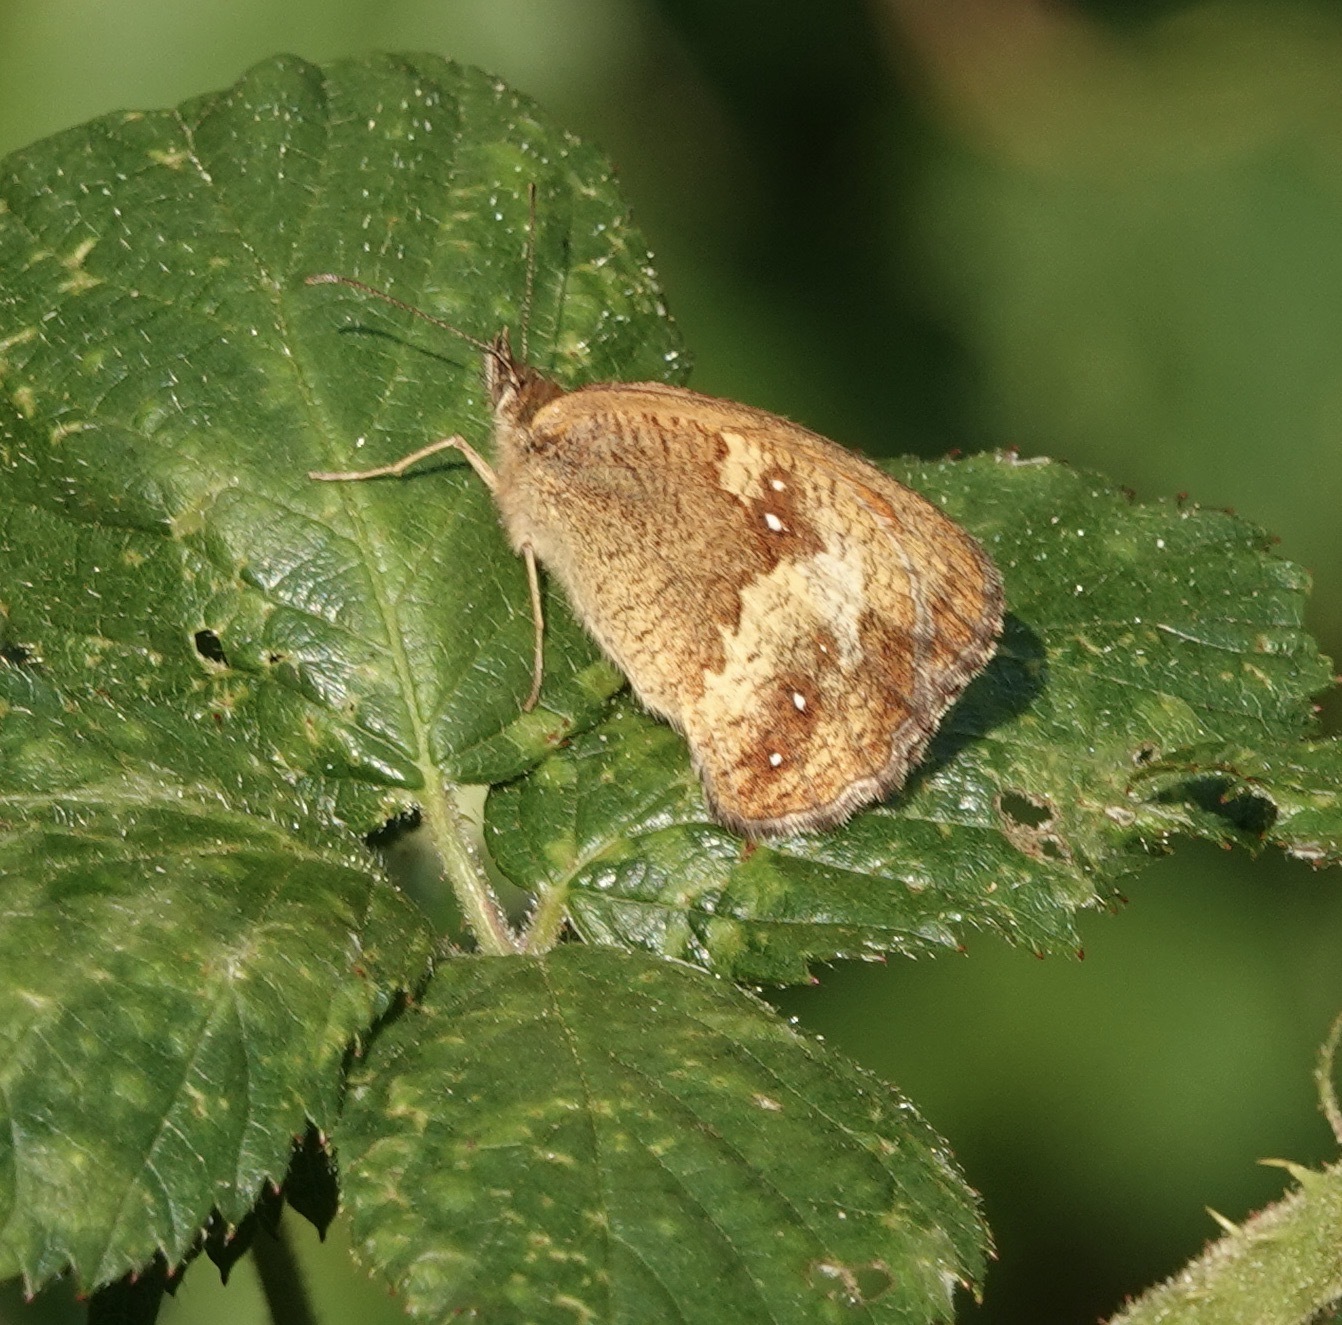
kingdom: Animalia
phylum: Arthropoda
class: Insecta
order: Lepidoptera
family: Nymphalidae
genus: Pyronia
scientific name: Pyronia tithonus
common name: Gatekeeper
